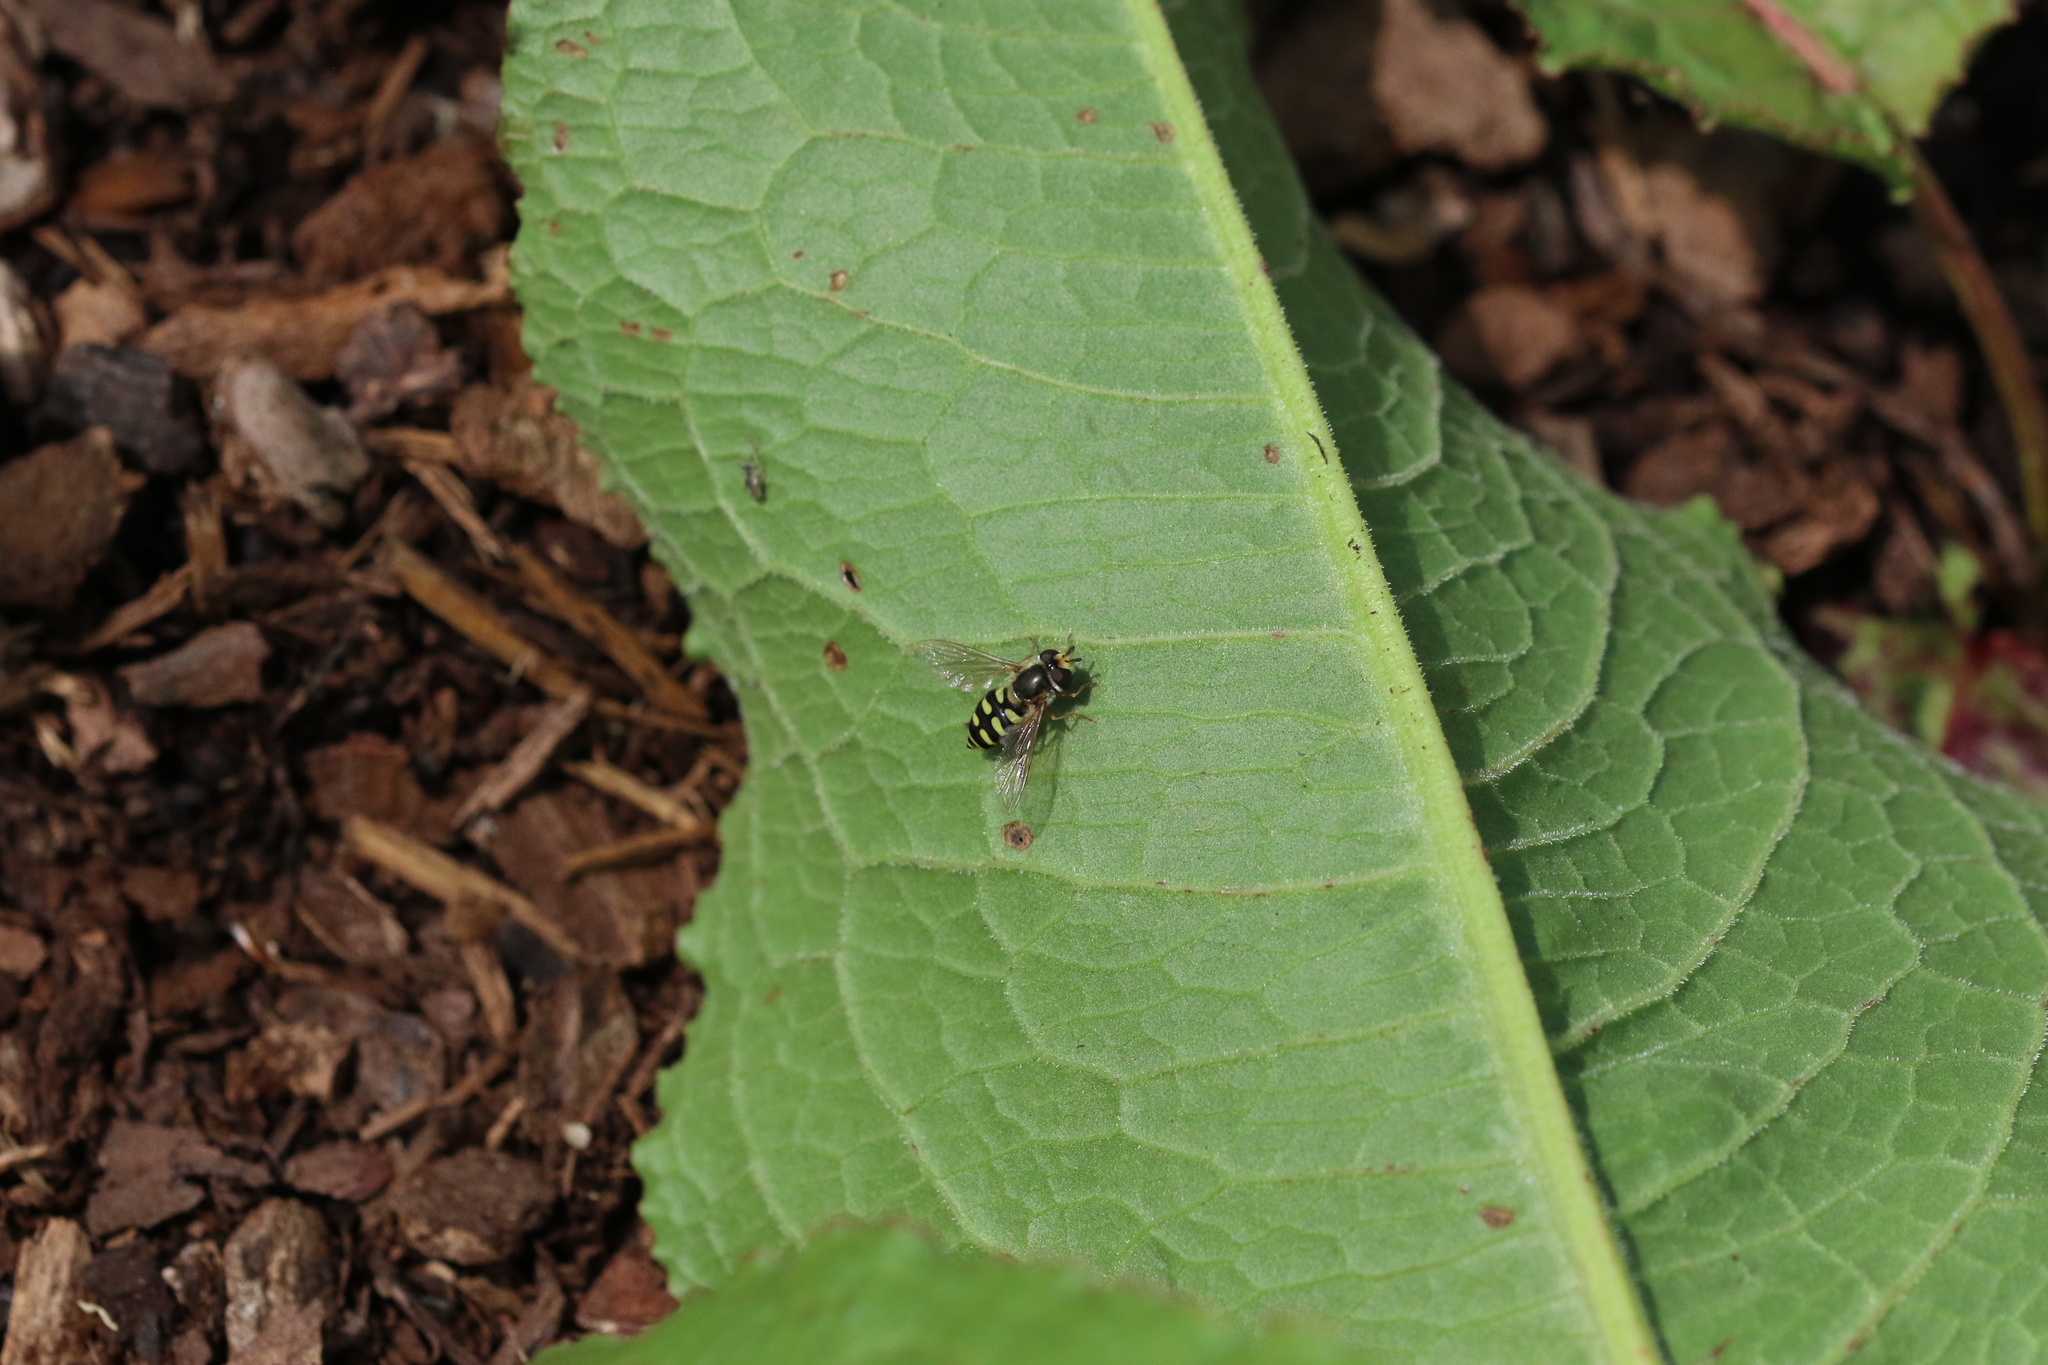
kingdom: Animalia
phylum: Arthropoda
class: Insecta
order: Diptera
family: Syrphidae
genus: Eupeodes
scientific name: Eupeodes corollae
